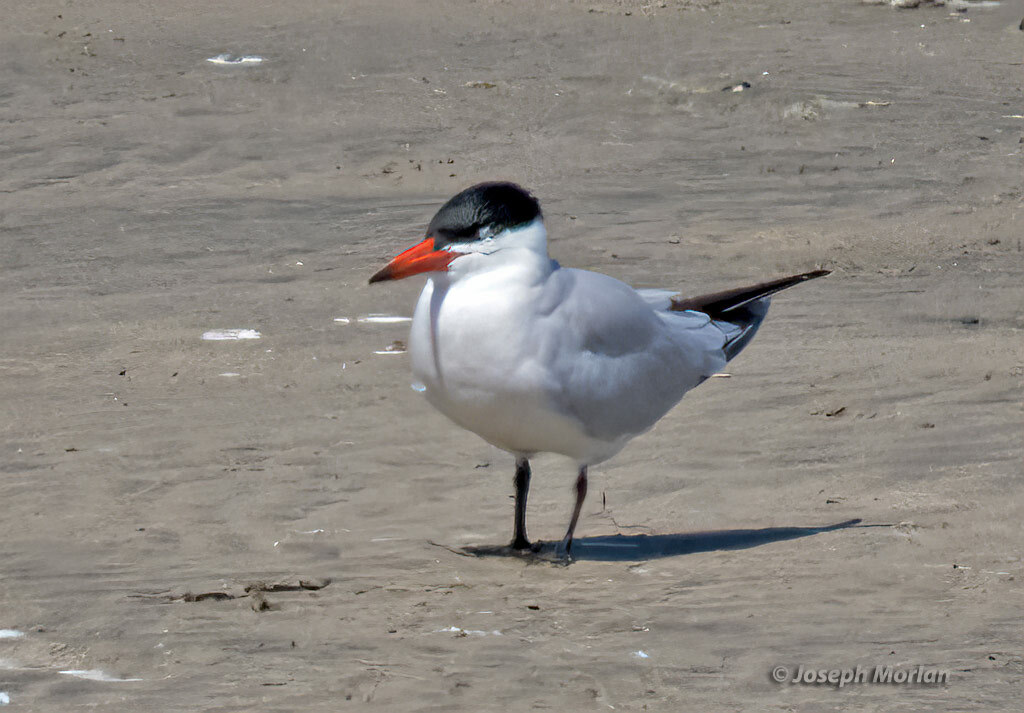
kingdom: Animalia
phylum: Chordata
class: Aves
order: Charadriiformes
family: Laridae
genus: Hydroprogne
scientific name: Hydroprogne caspia
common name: Caspian tern
